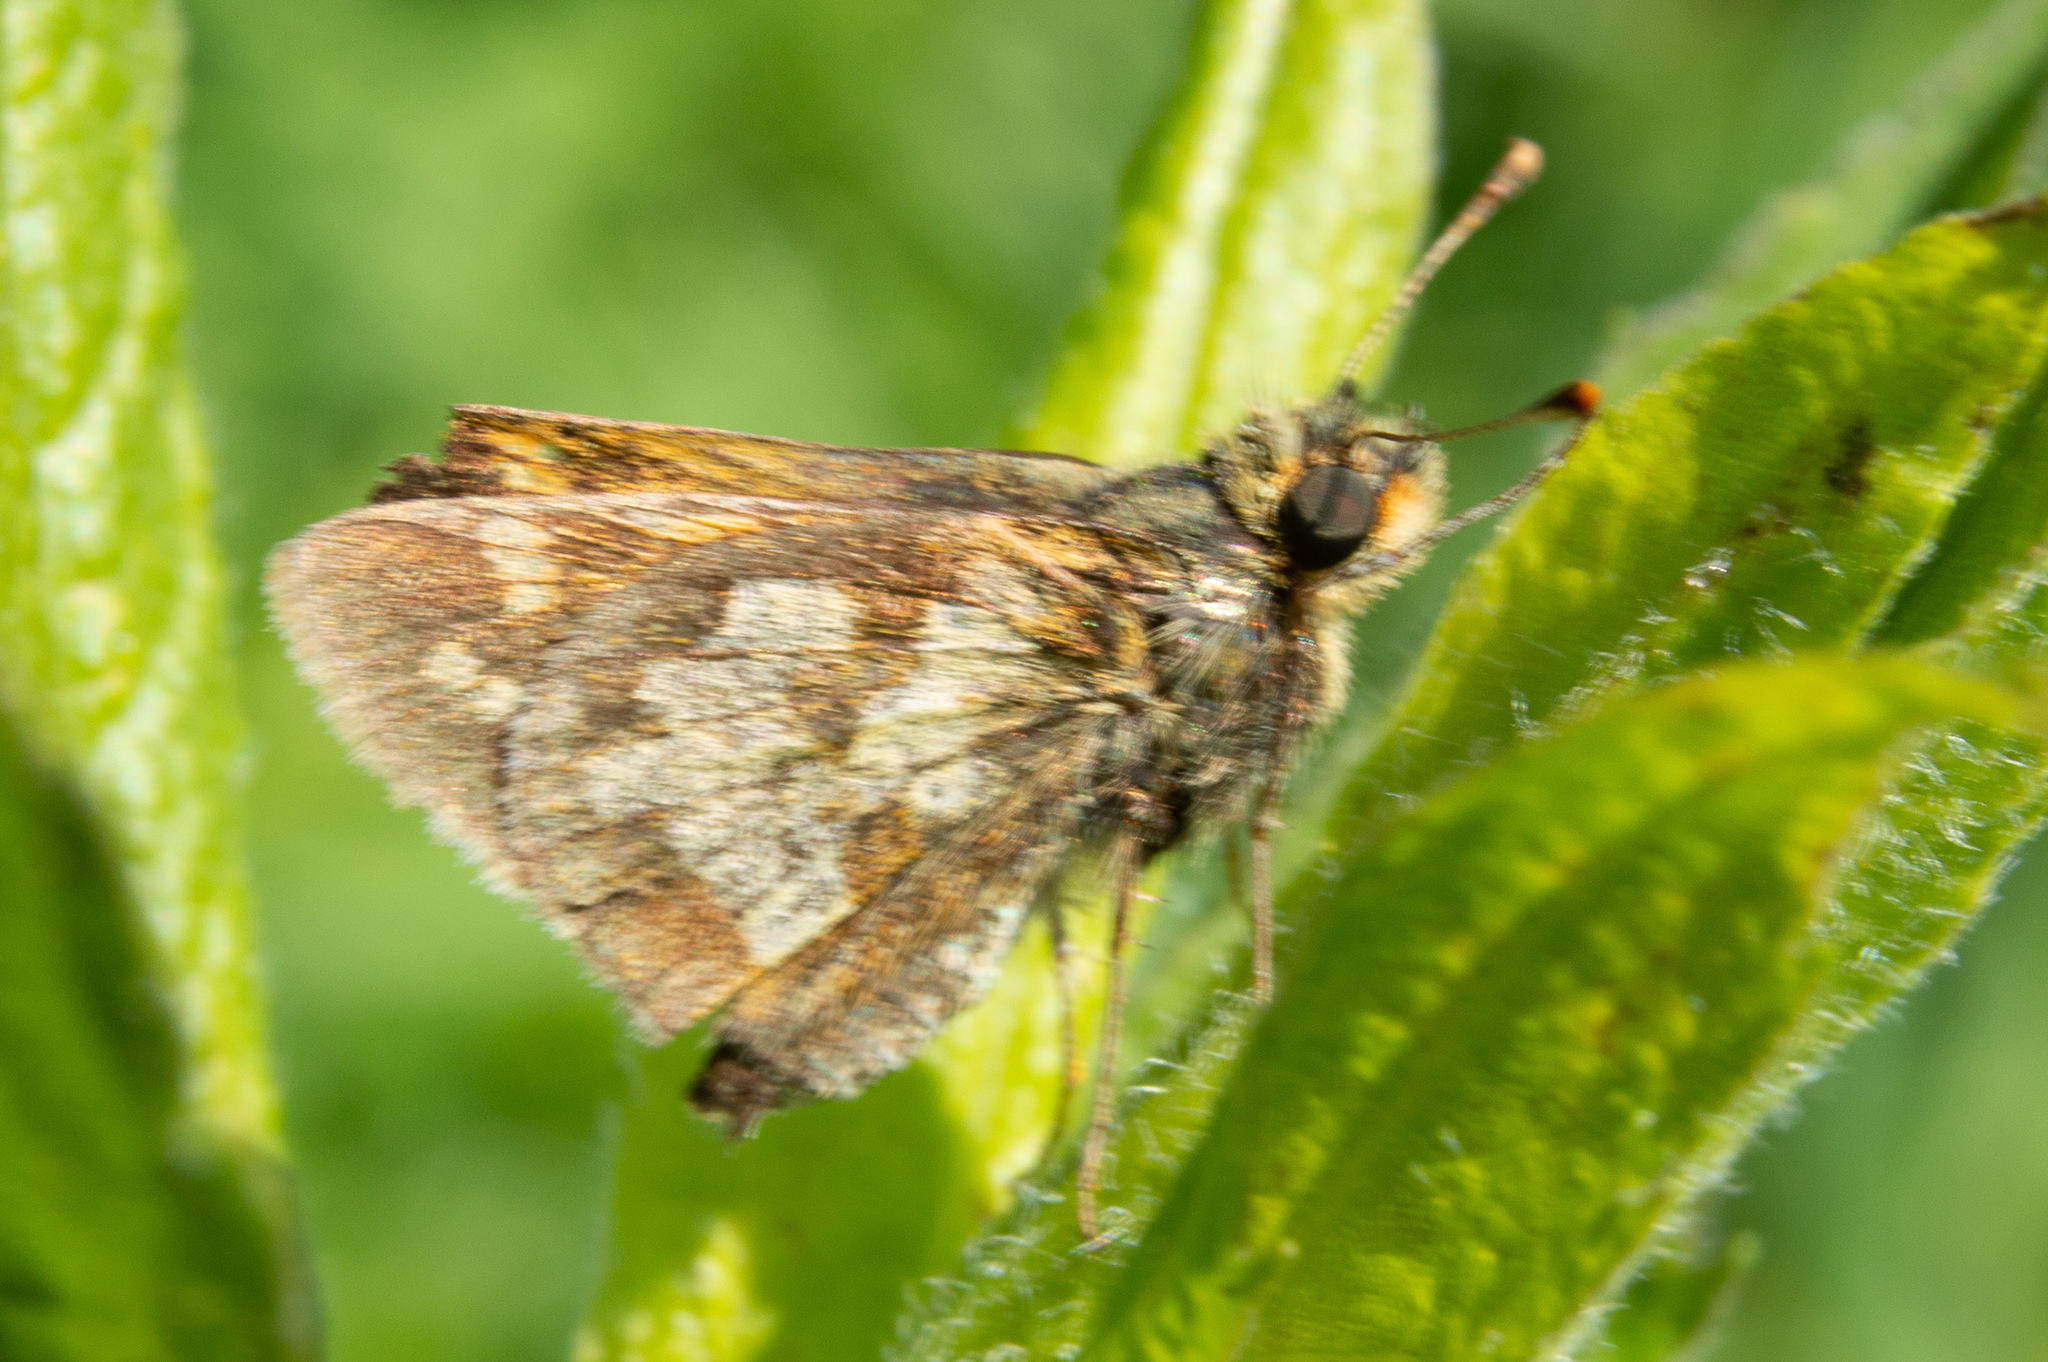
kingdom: Animalia
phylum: Arthropoda
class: Insecta
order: Lepidoptera
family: Hesperiidae
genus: Polites
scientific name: Polites coras
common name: Peck's skipper
